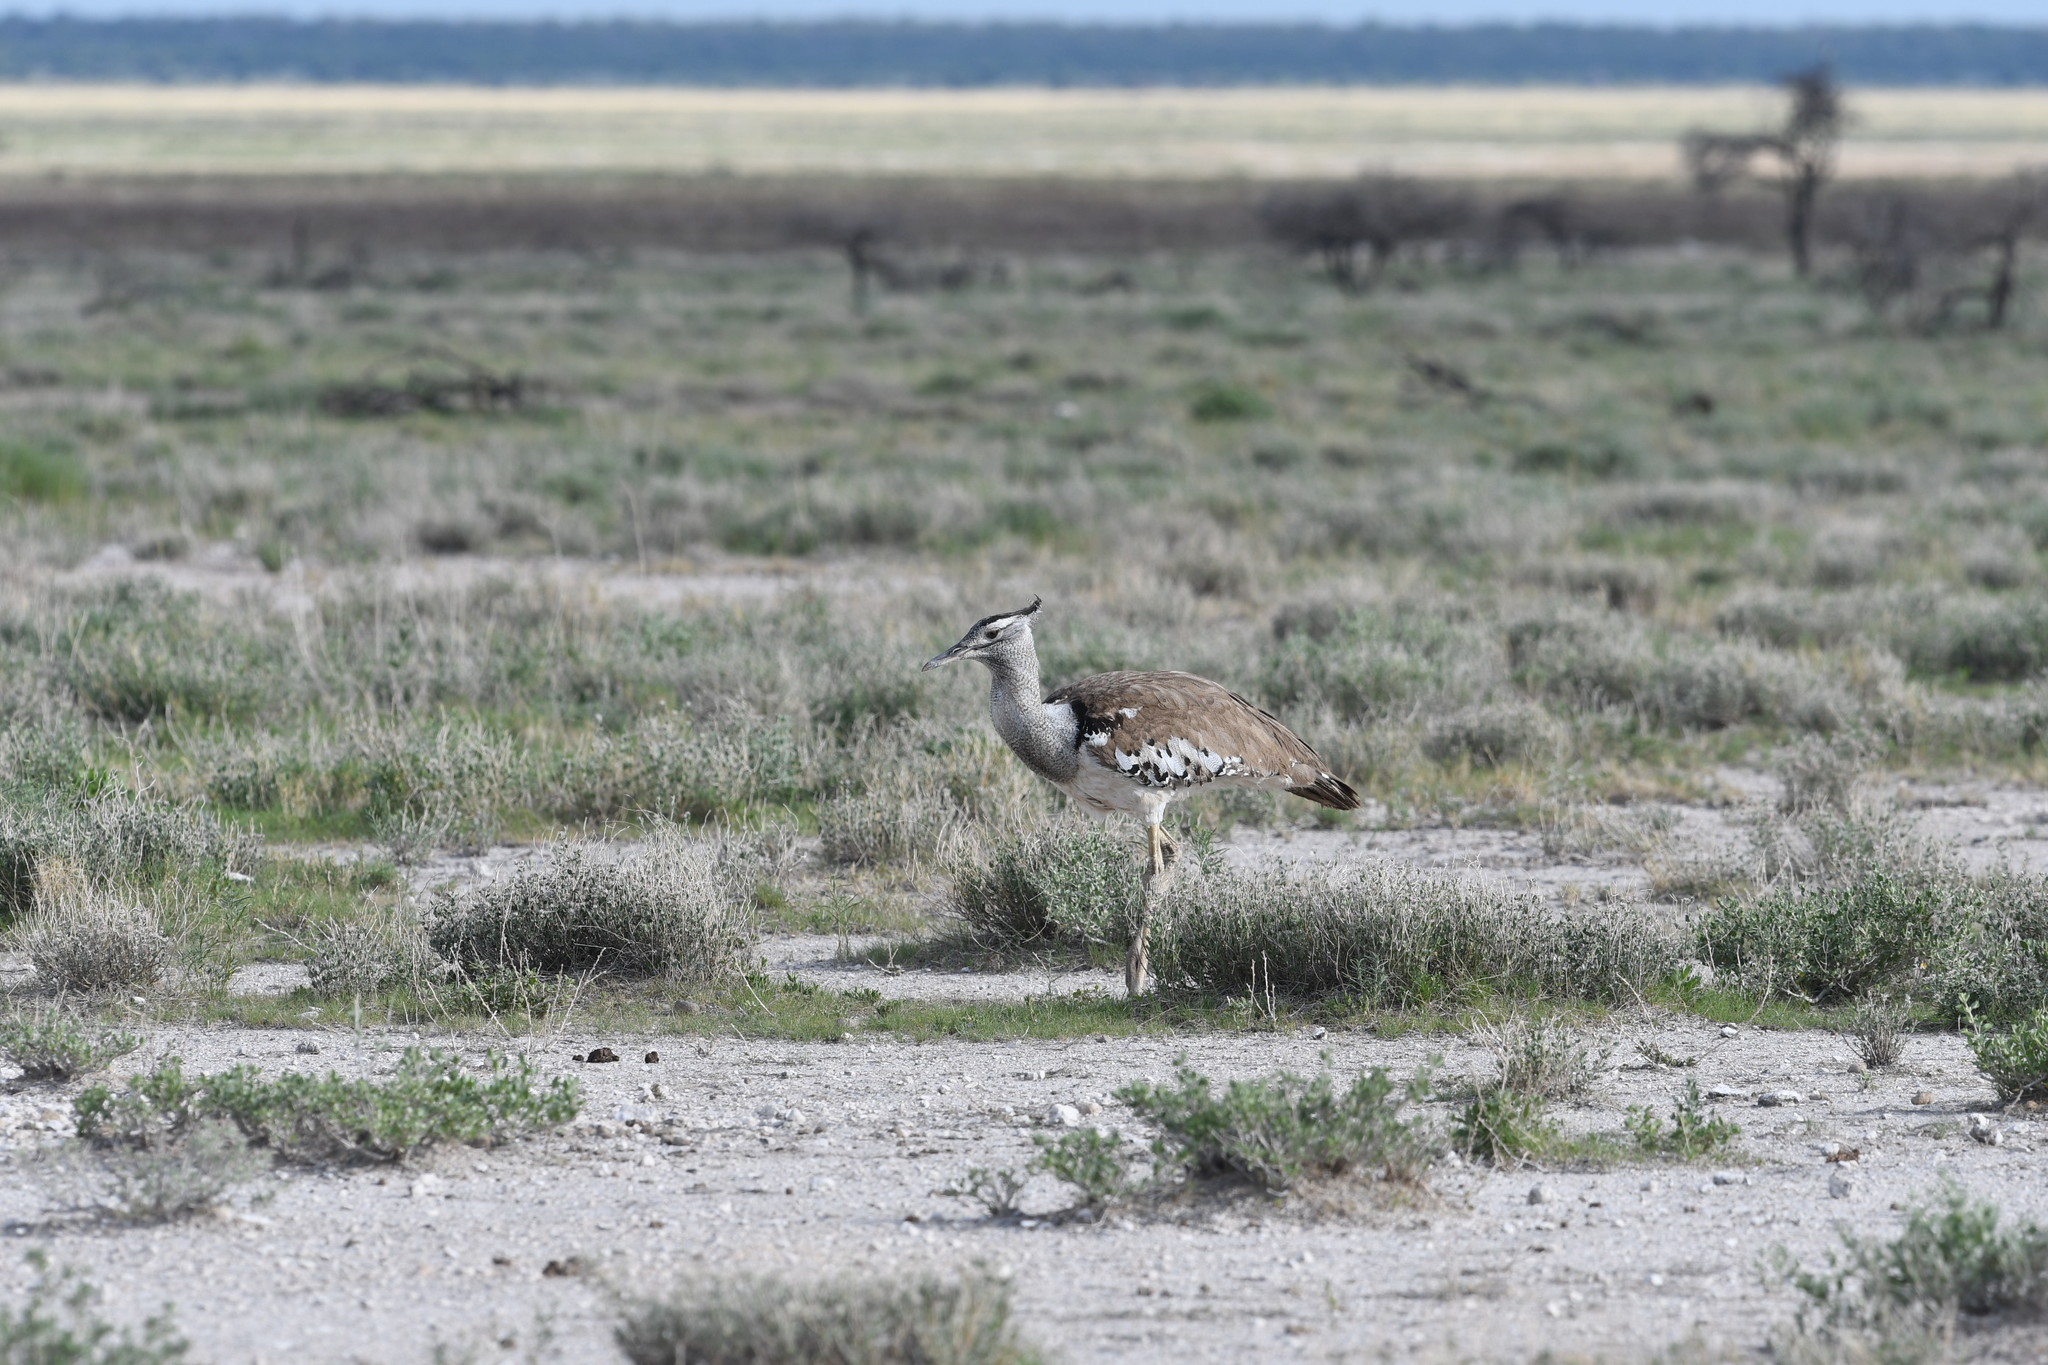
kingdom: Animalia
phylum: Chordata
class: Aves
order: Otidiformes
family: Otididae
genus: Ardeotis
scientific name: Ardeotis kori
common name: Kori bustard
